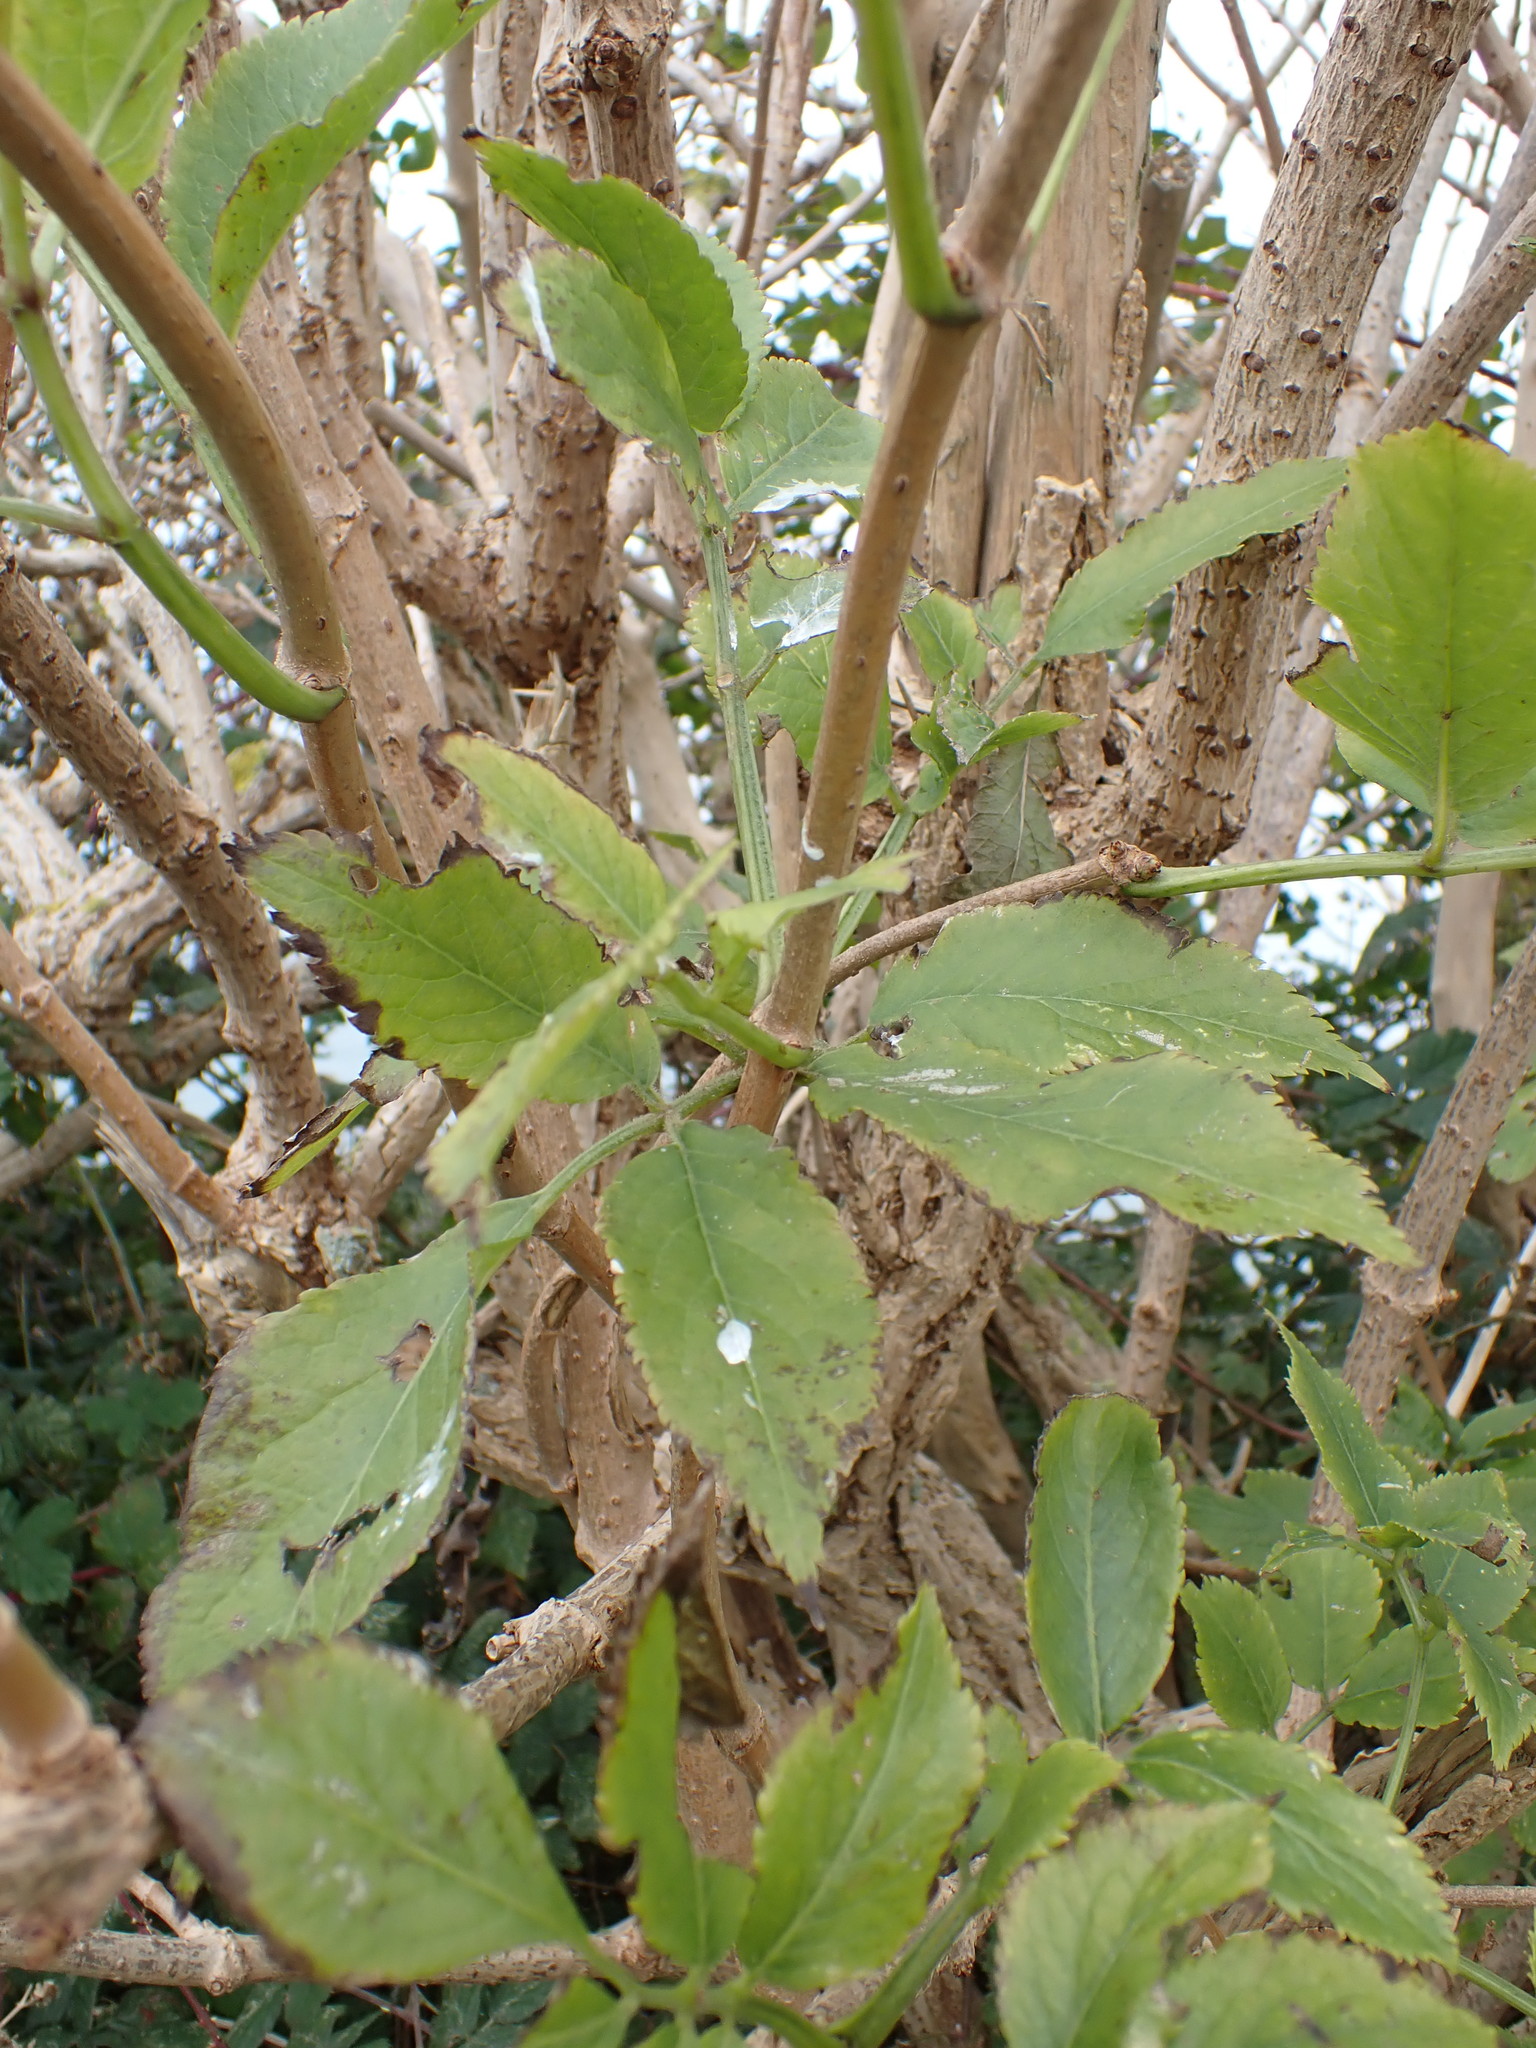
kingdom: Plantae
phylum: Tracheophyta
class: Magnoliopsida
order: Dipsacales
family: Viburnaceae
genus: Sambucus
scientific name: Sambucus nigra
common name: Elder
